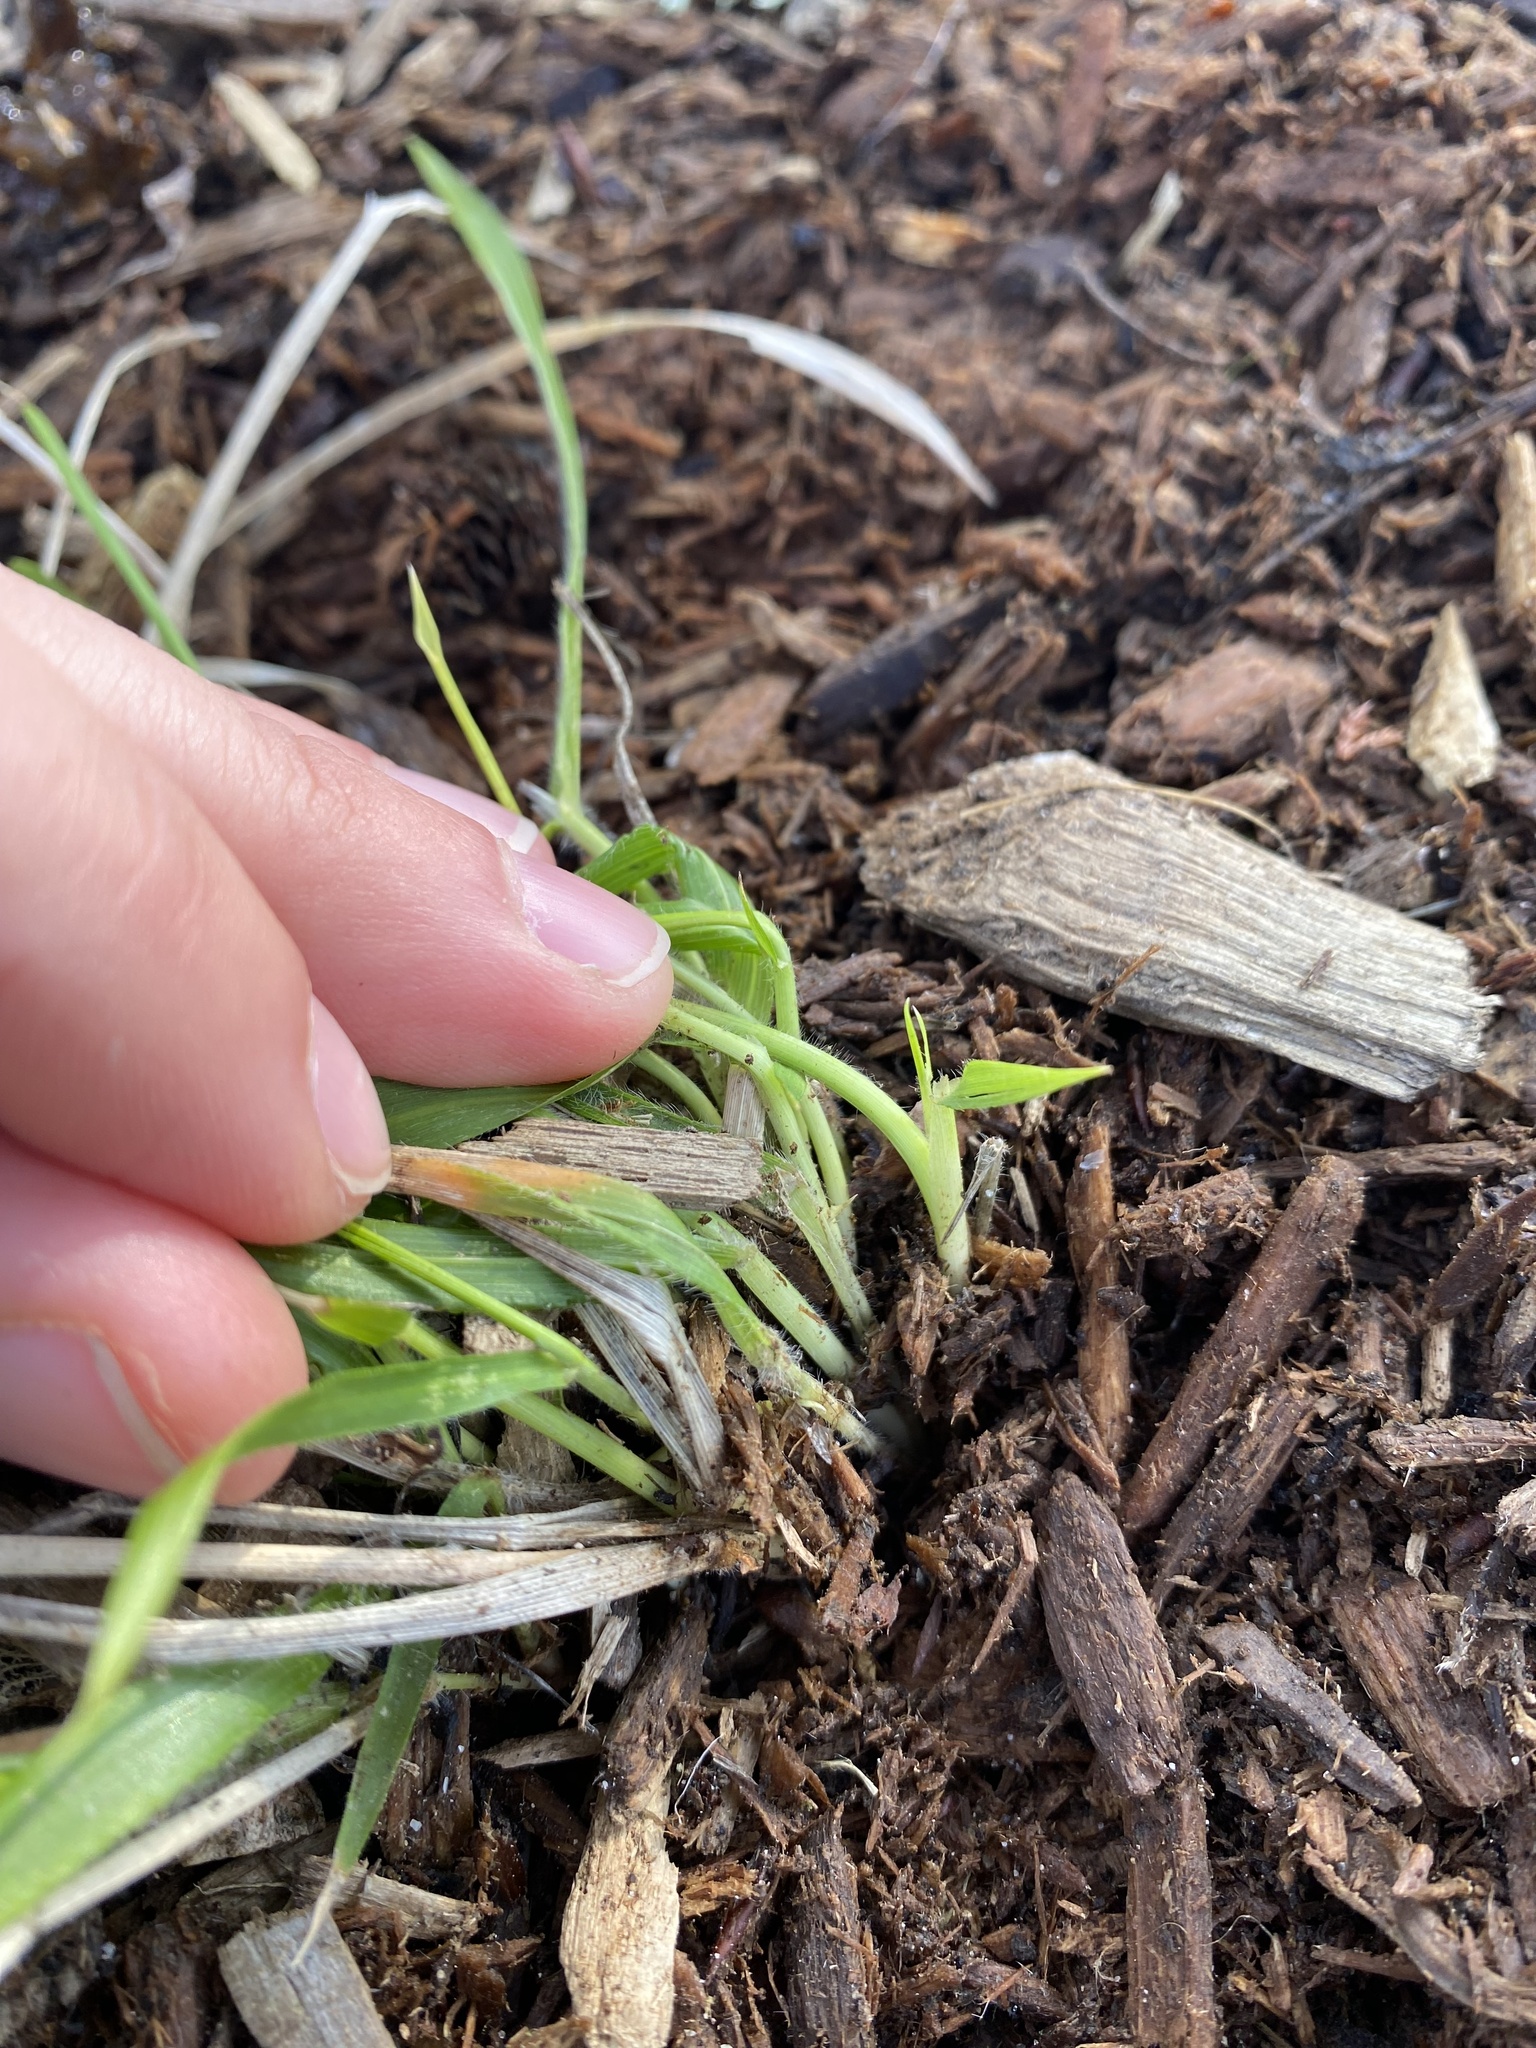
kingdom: Plantae
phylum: Tracheophyta
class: Liliopsida
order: Poales
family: Poaceae
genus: Brachypodium
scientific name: Brachypodium sylvaticum
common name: False-brome
